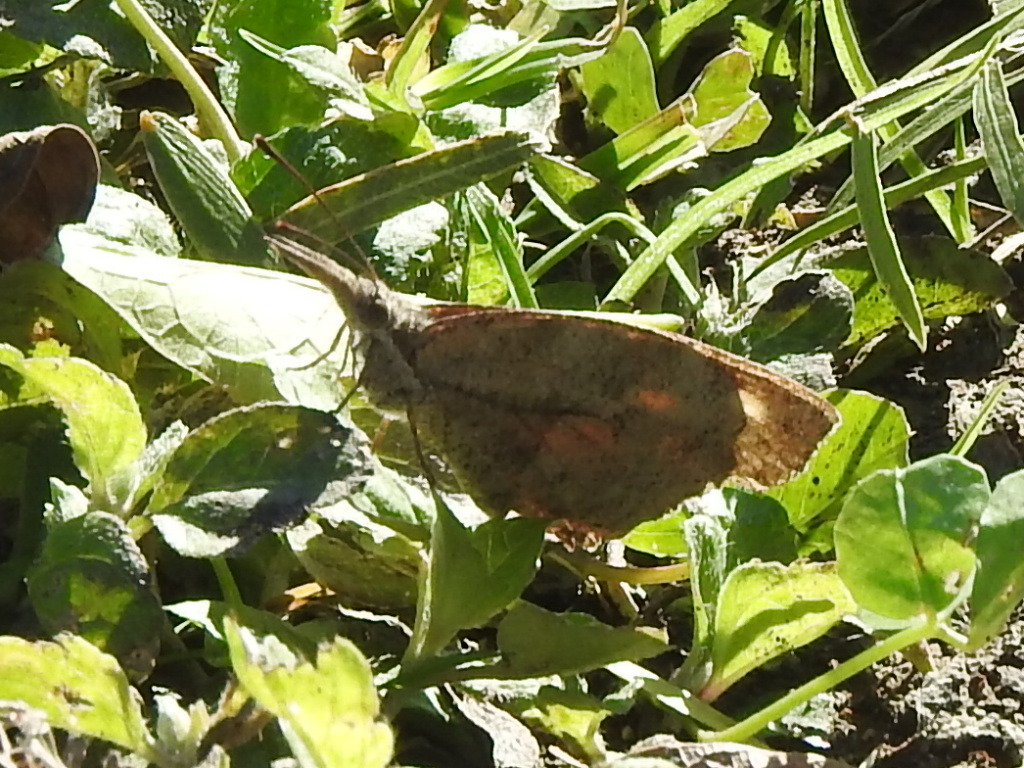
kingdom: Animalia
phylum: Arthropoda
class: Insecta
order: Lepidoptera
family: Nymphalidae
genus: Libytheana
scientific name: Libytheana carinenta
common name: American snout
